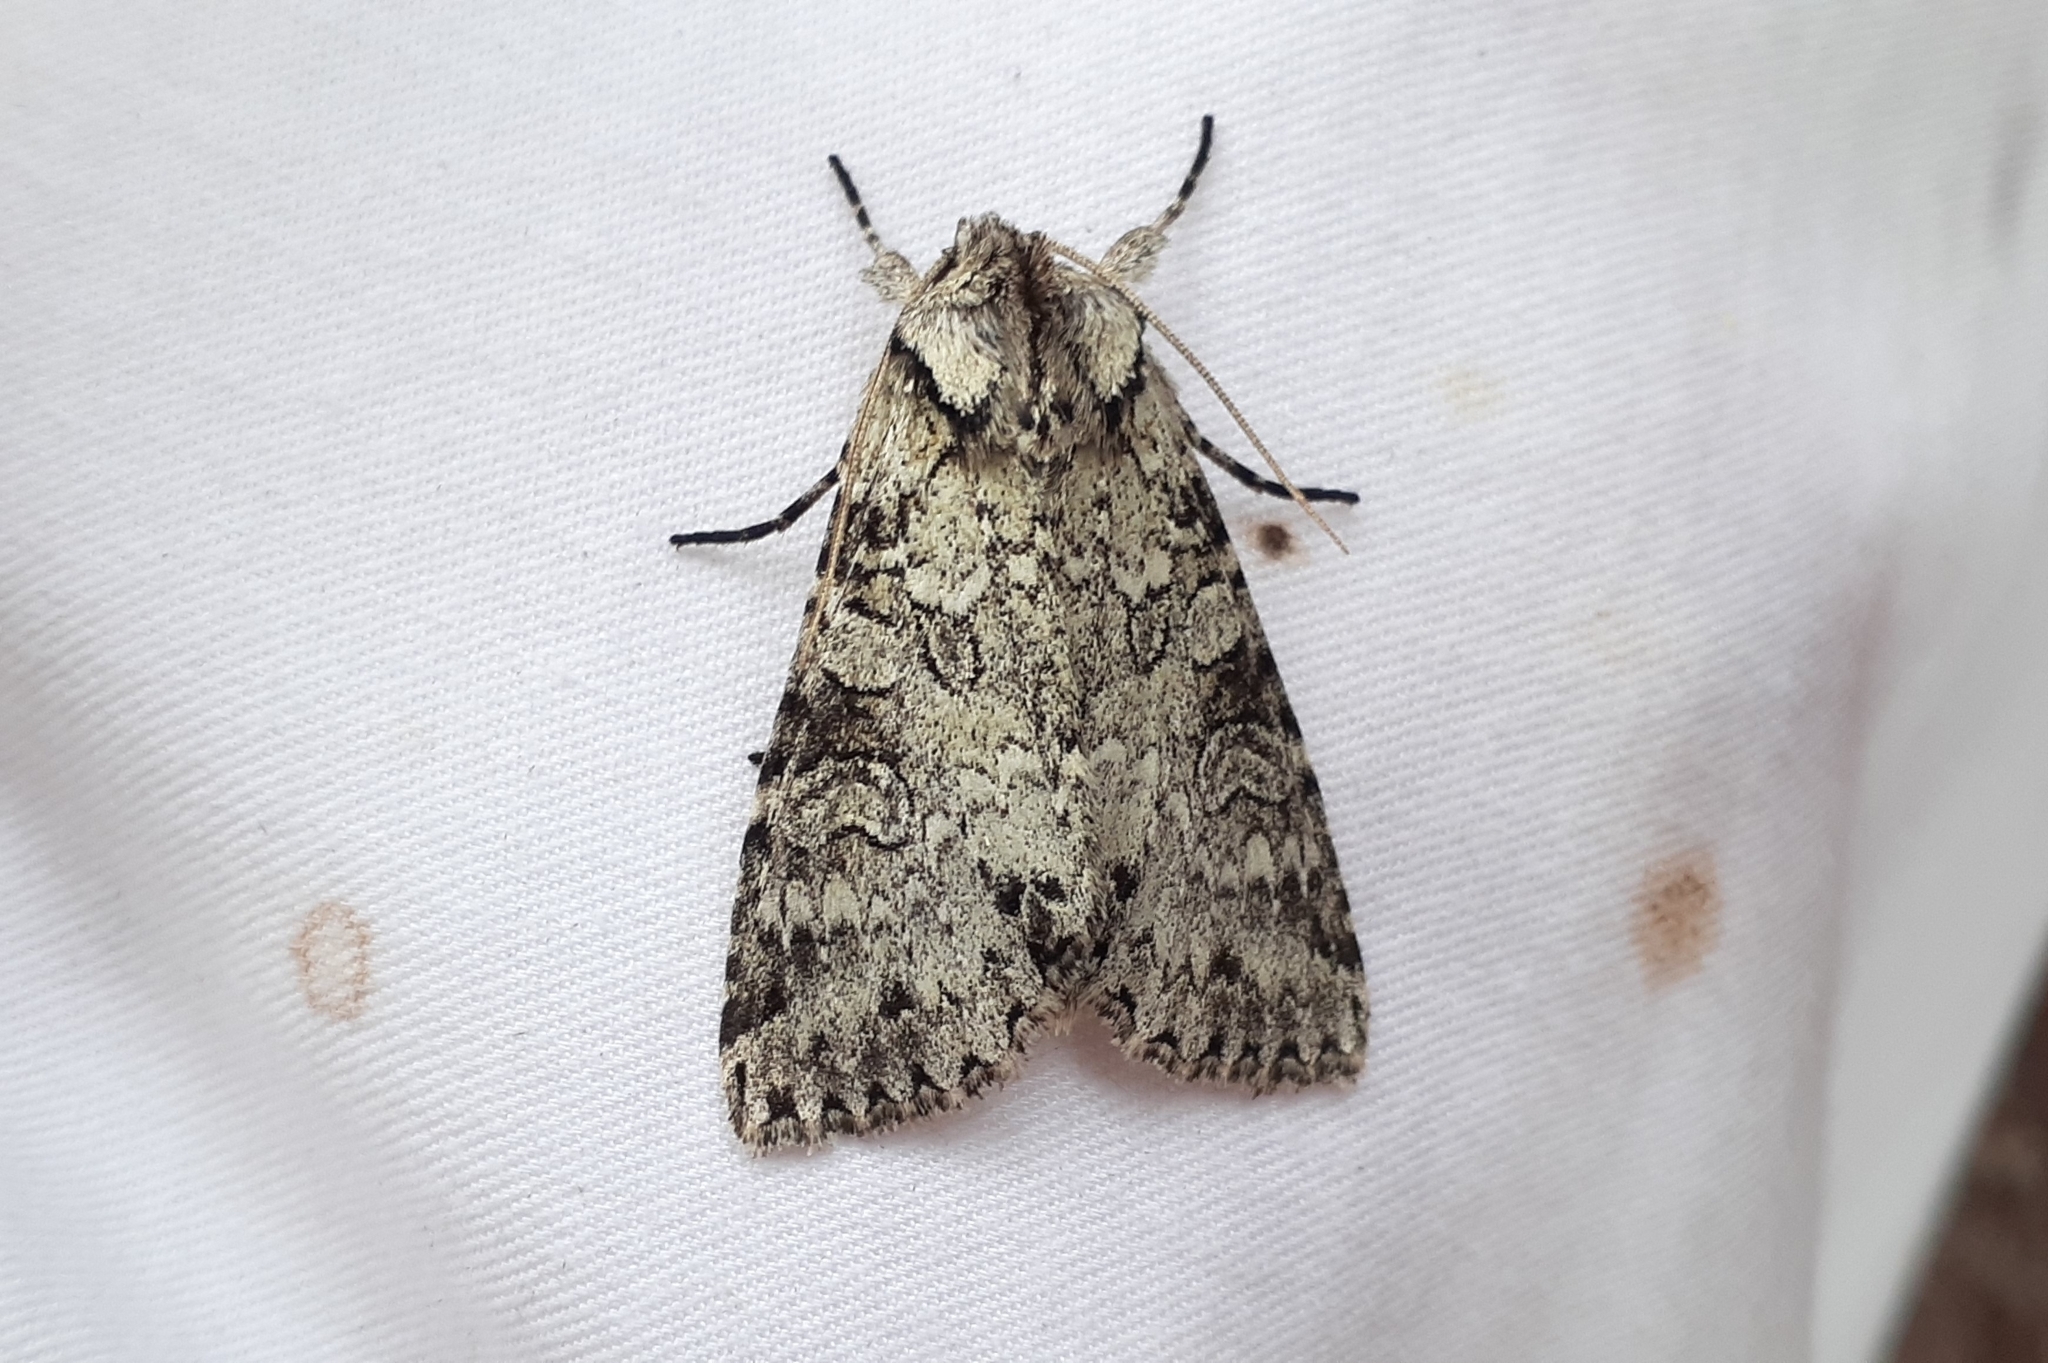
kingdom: Animalia
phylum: Arthropoda
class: Insecta
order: Lepidoptera
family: Noctuidae
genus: Polia
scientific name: Polia nimbosa
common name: Stormy arches
